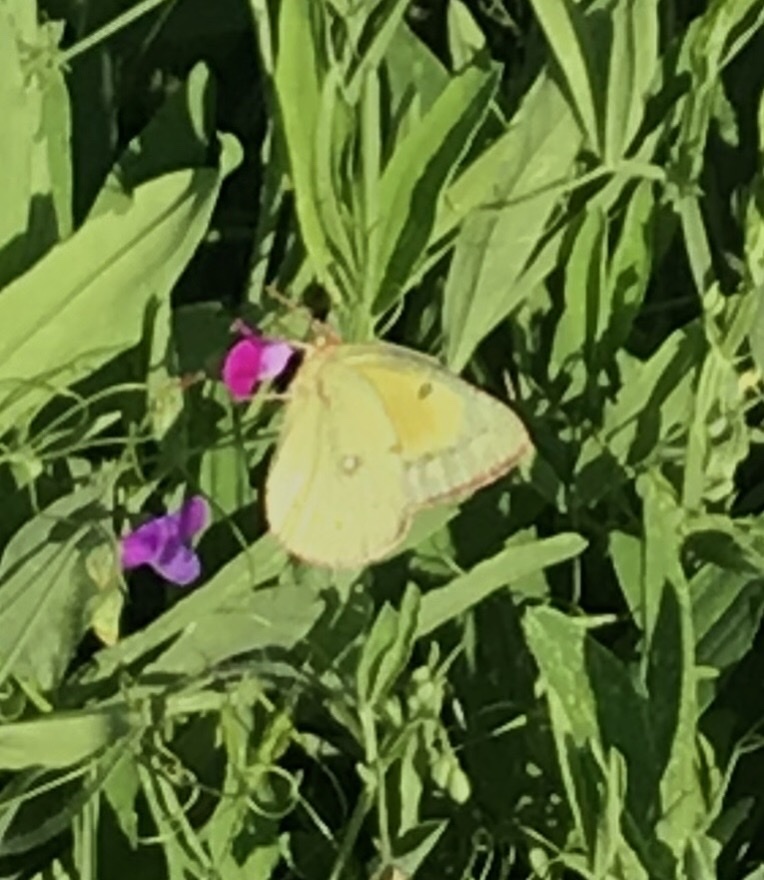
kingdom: Animalia
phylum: Arthropoda
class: Insecta
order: Lepidoptera
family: Pieridae
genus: Colias
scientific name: Colias eurytheme
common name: Alfalfa butterfly
